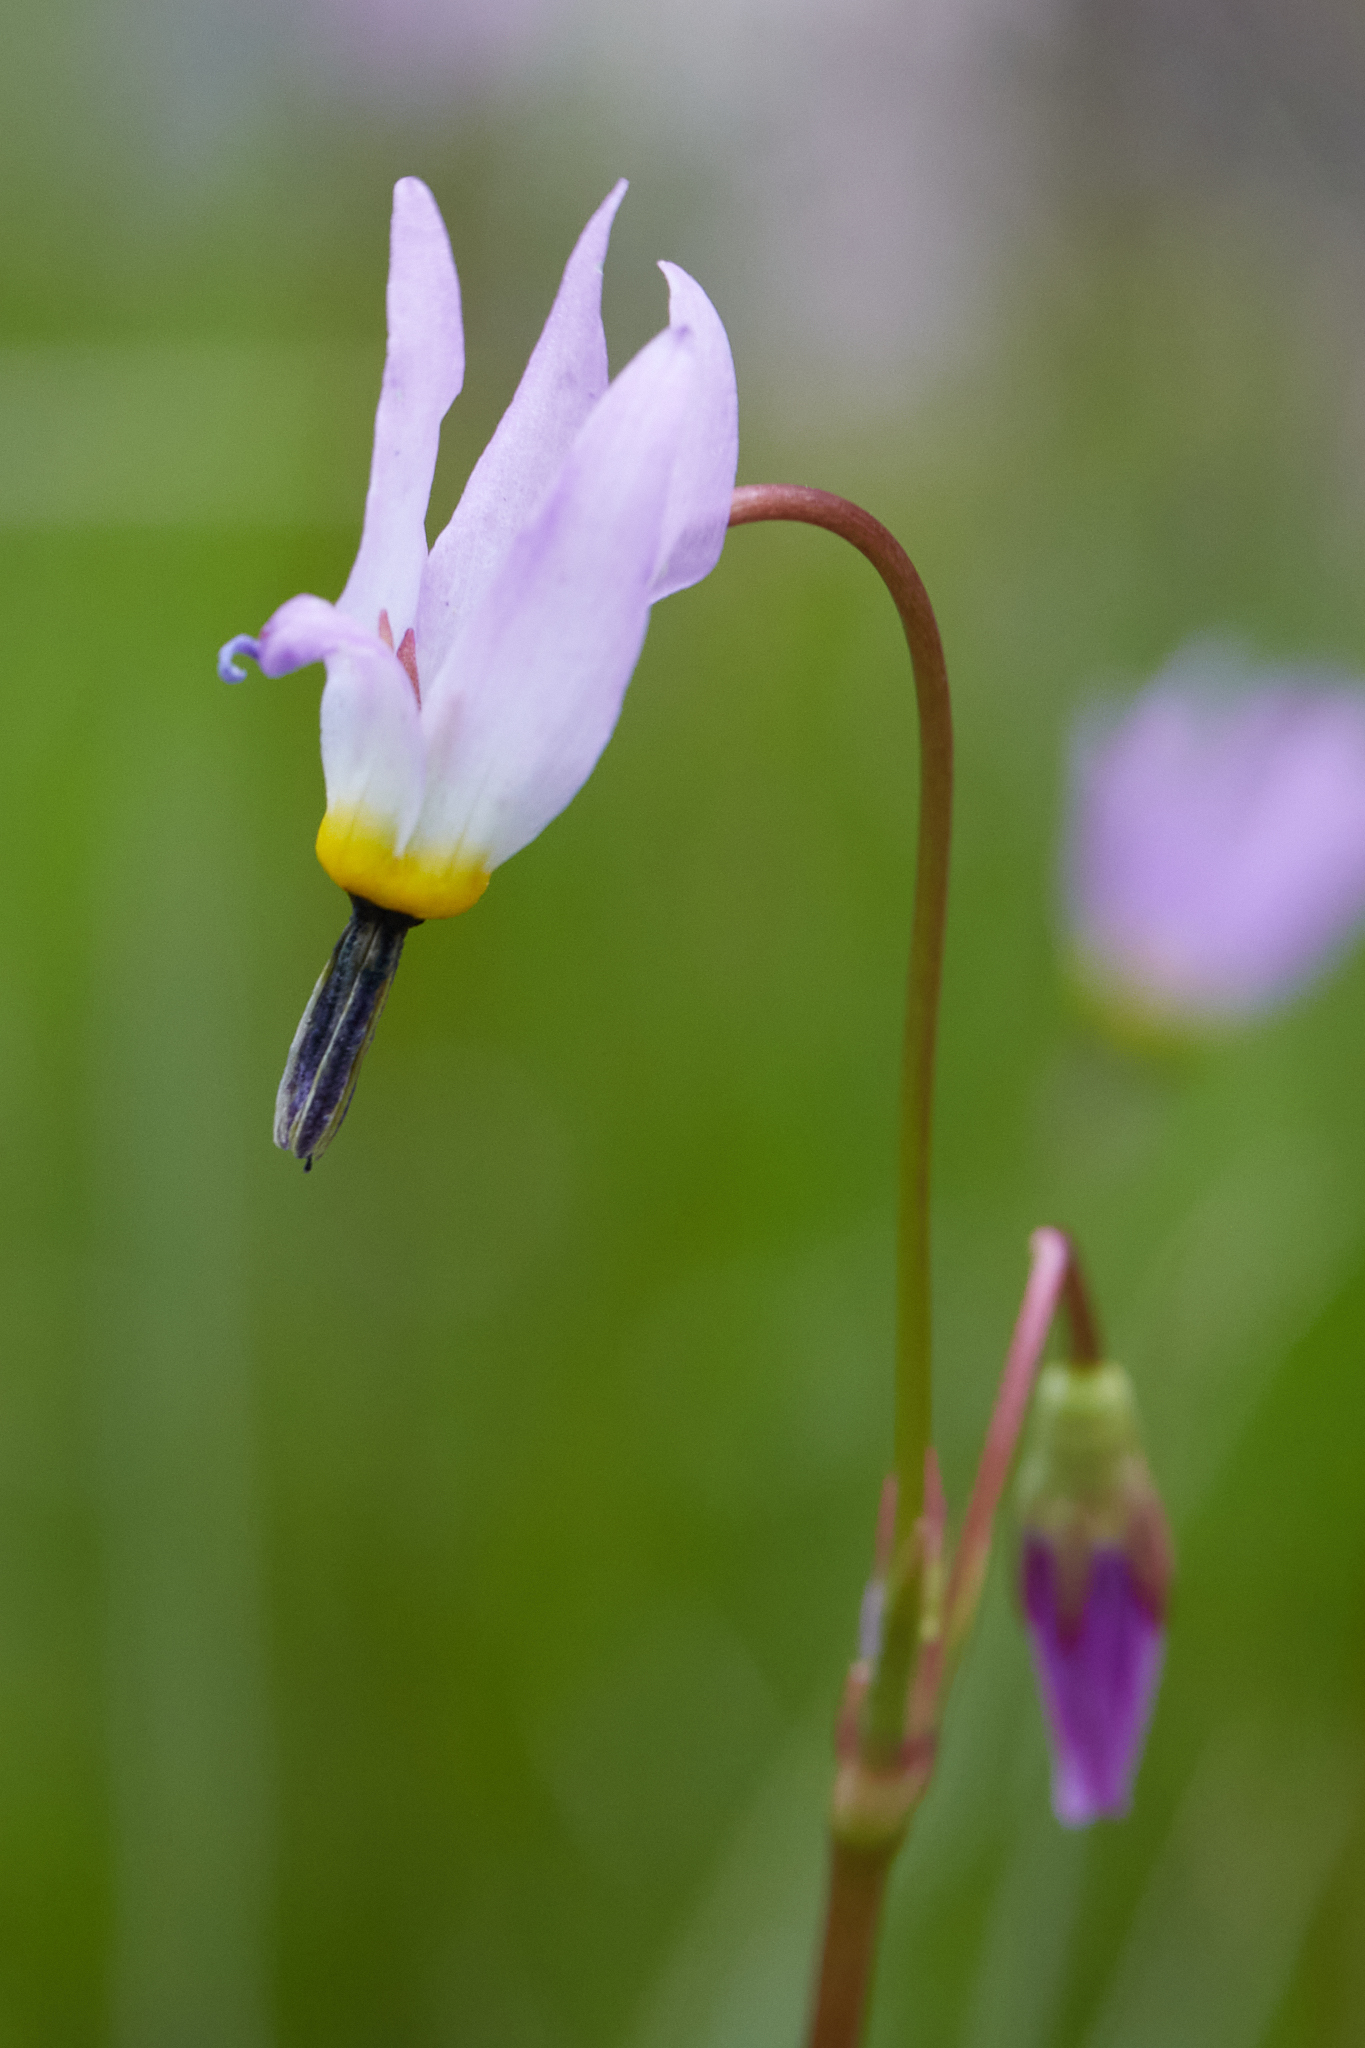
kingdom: Plantae
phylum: Tracheophyta
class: Magnoliopsida
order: Ericales
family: Primulaceae
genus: Dodecatheon
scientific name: Dodecatheon jeffreyanum
